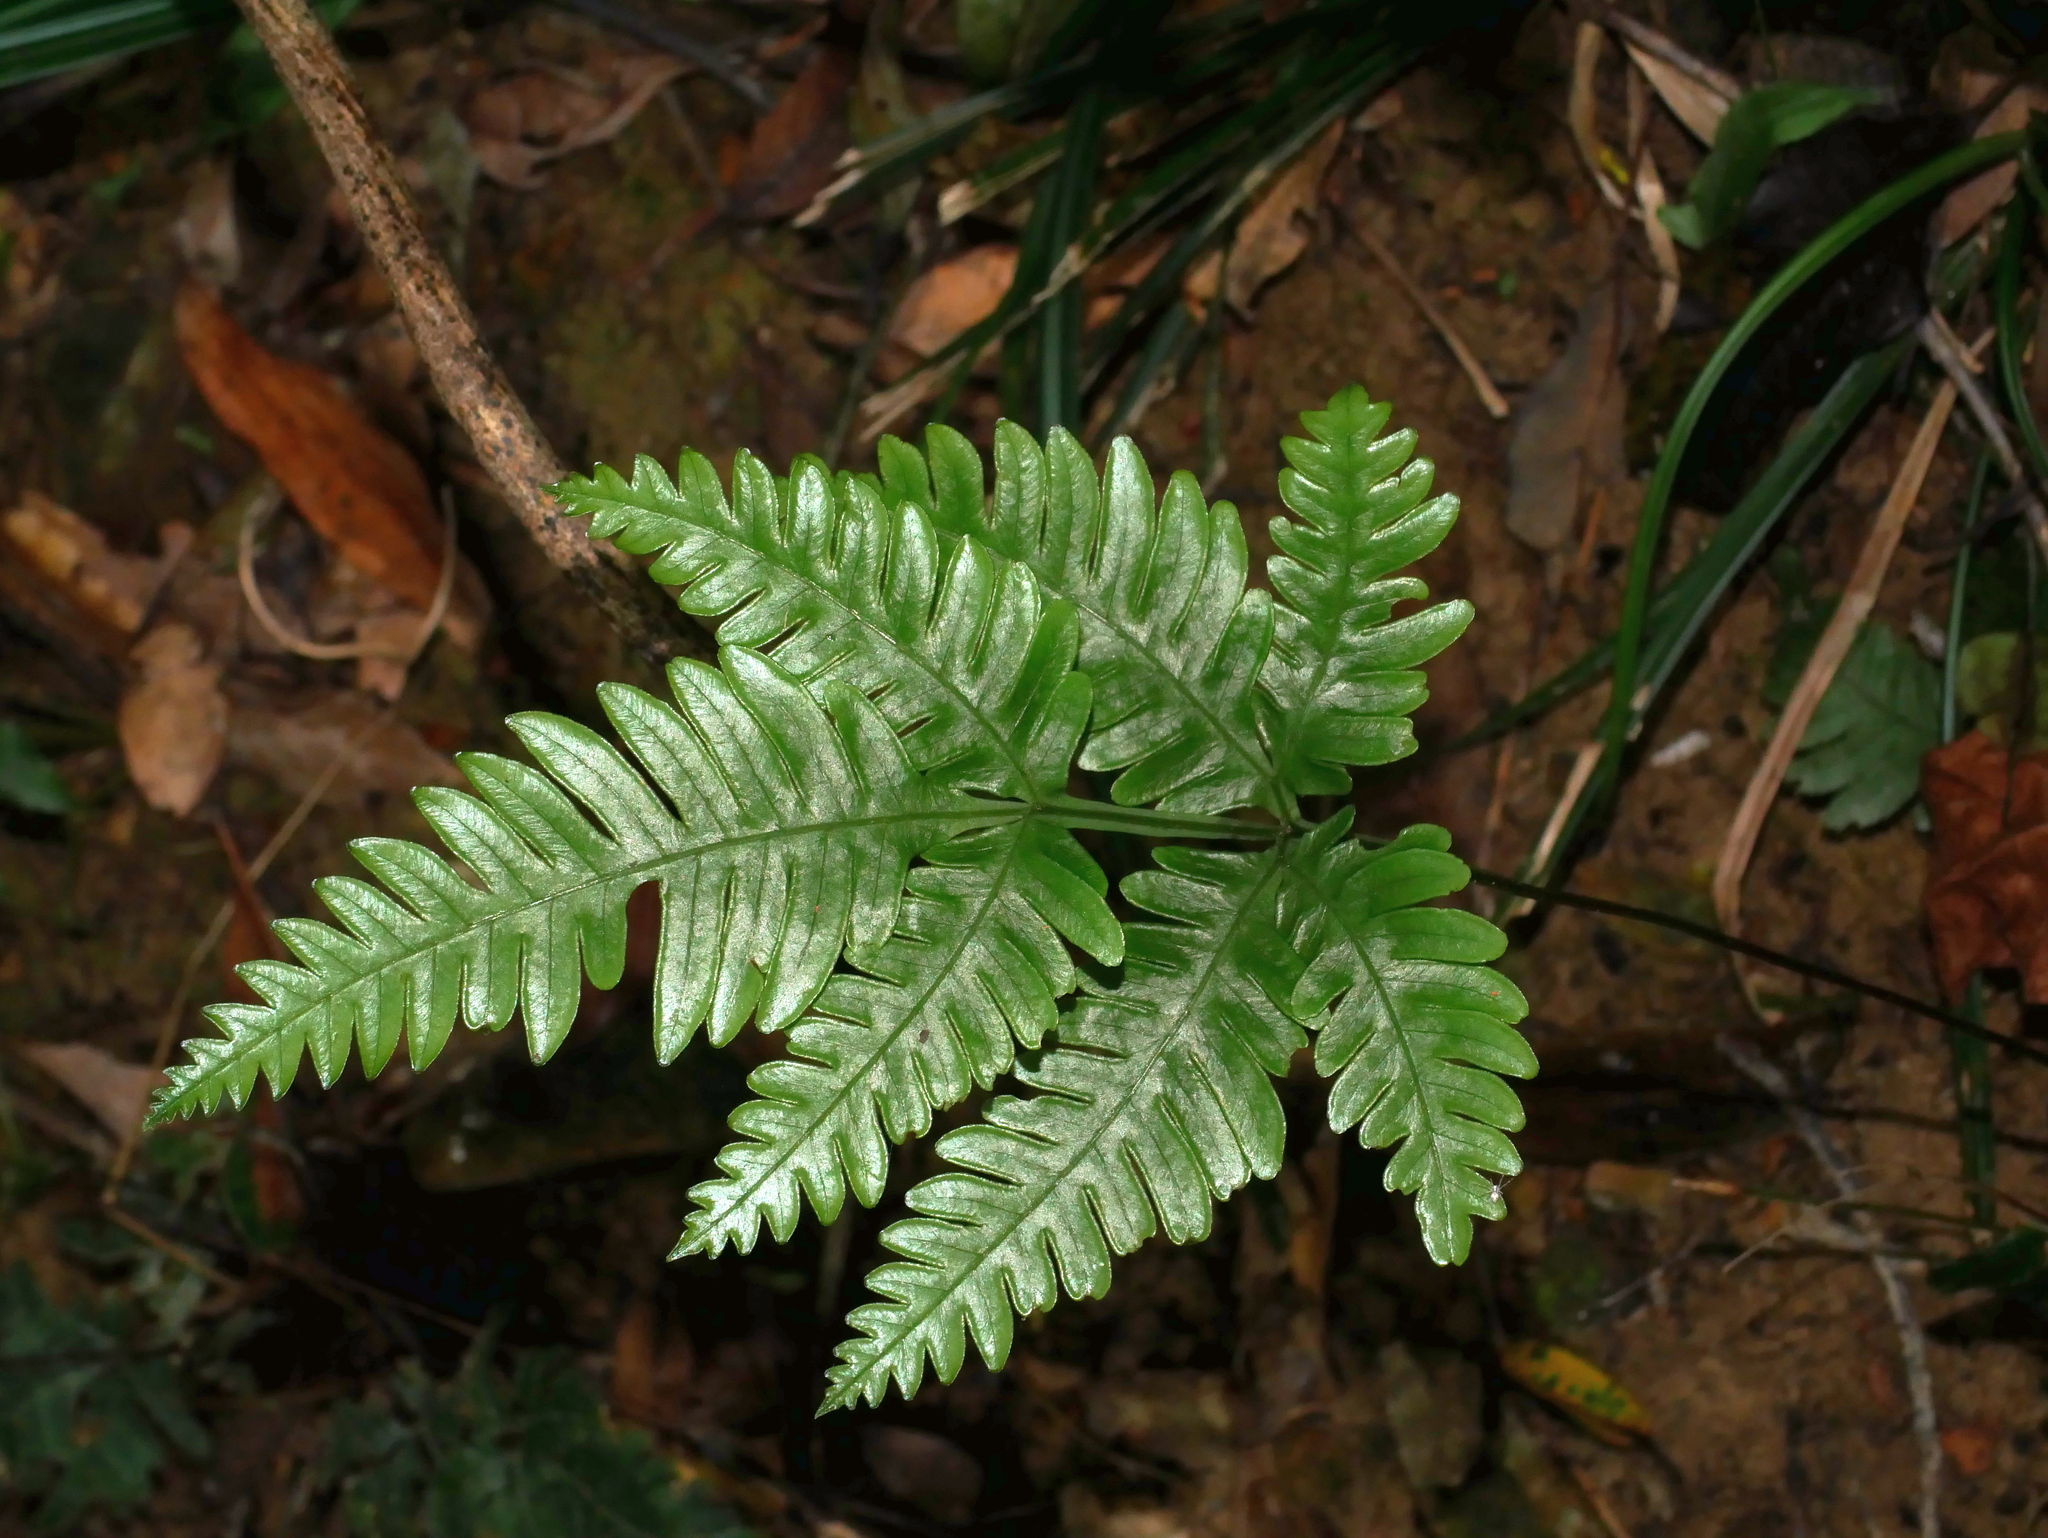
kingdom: Plantae
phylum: Tracheophyta
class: Polypodiopsida
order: Polypodiales
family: Pteridaceae
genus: Pteris
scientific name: Pteris grevilleana
